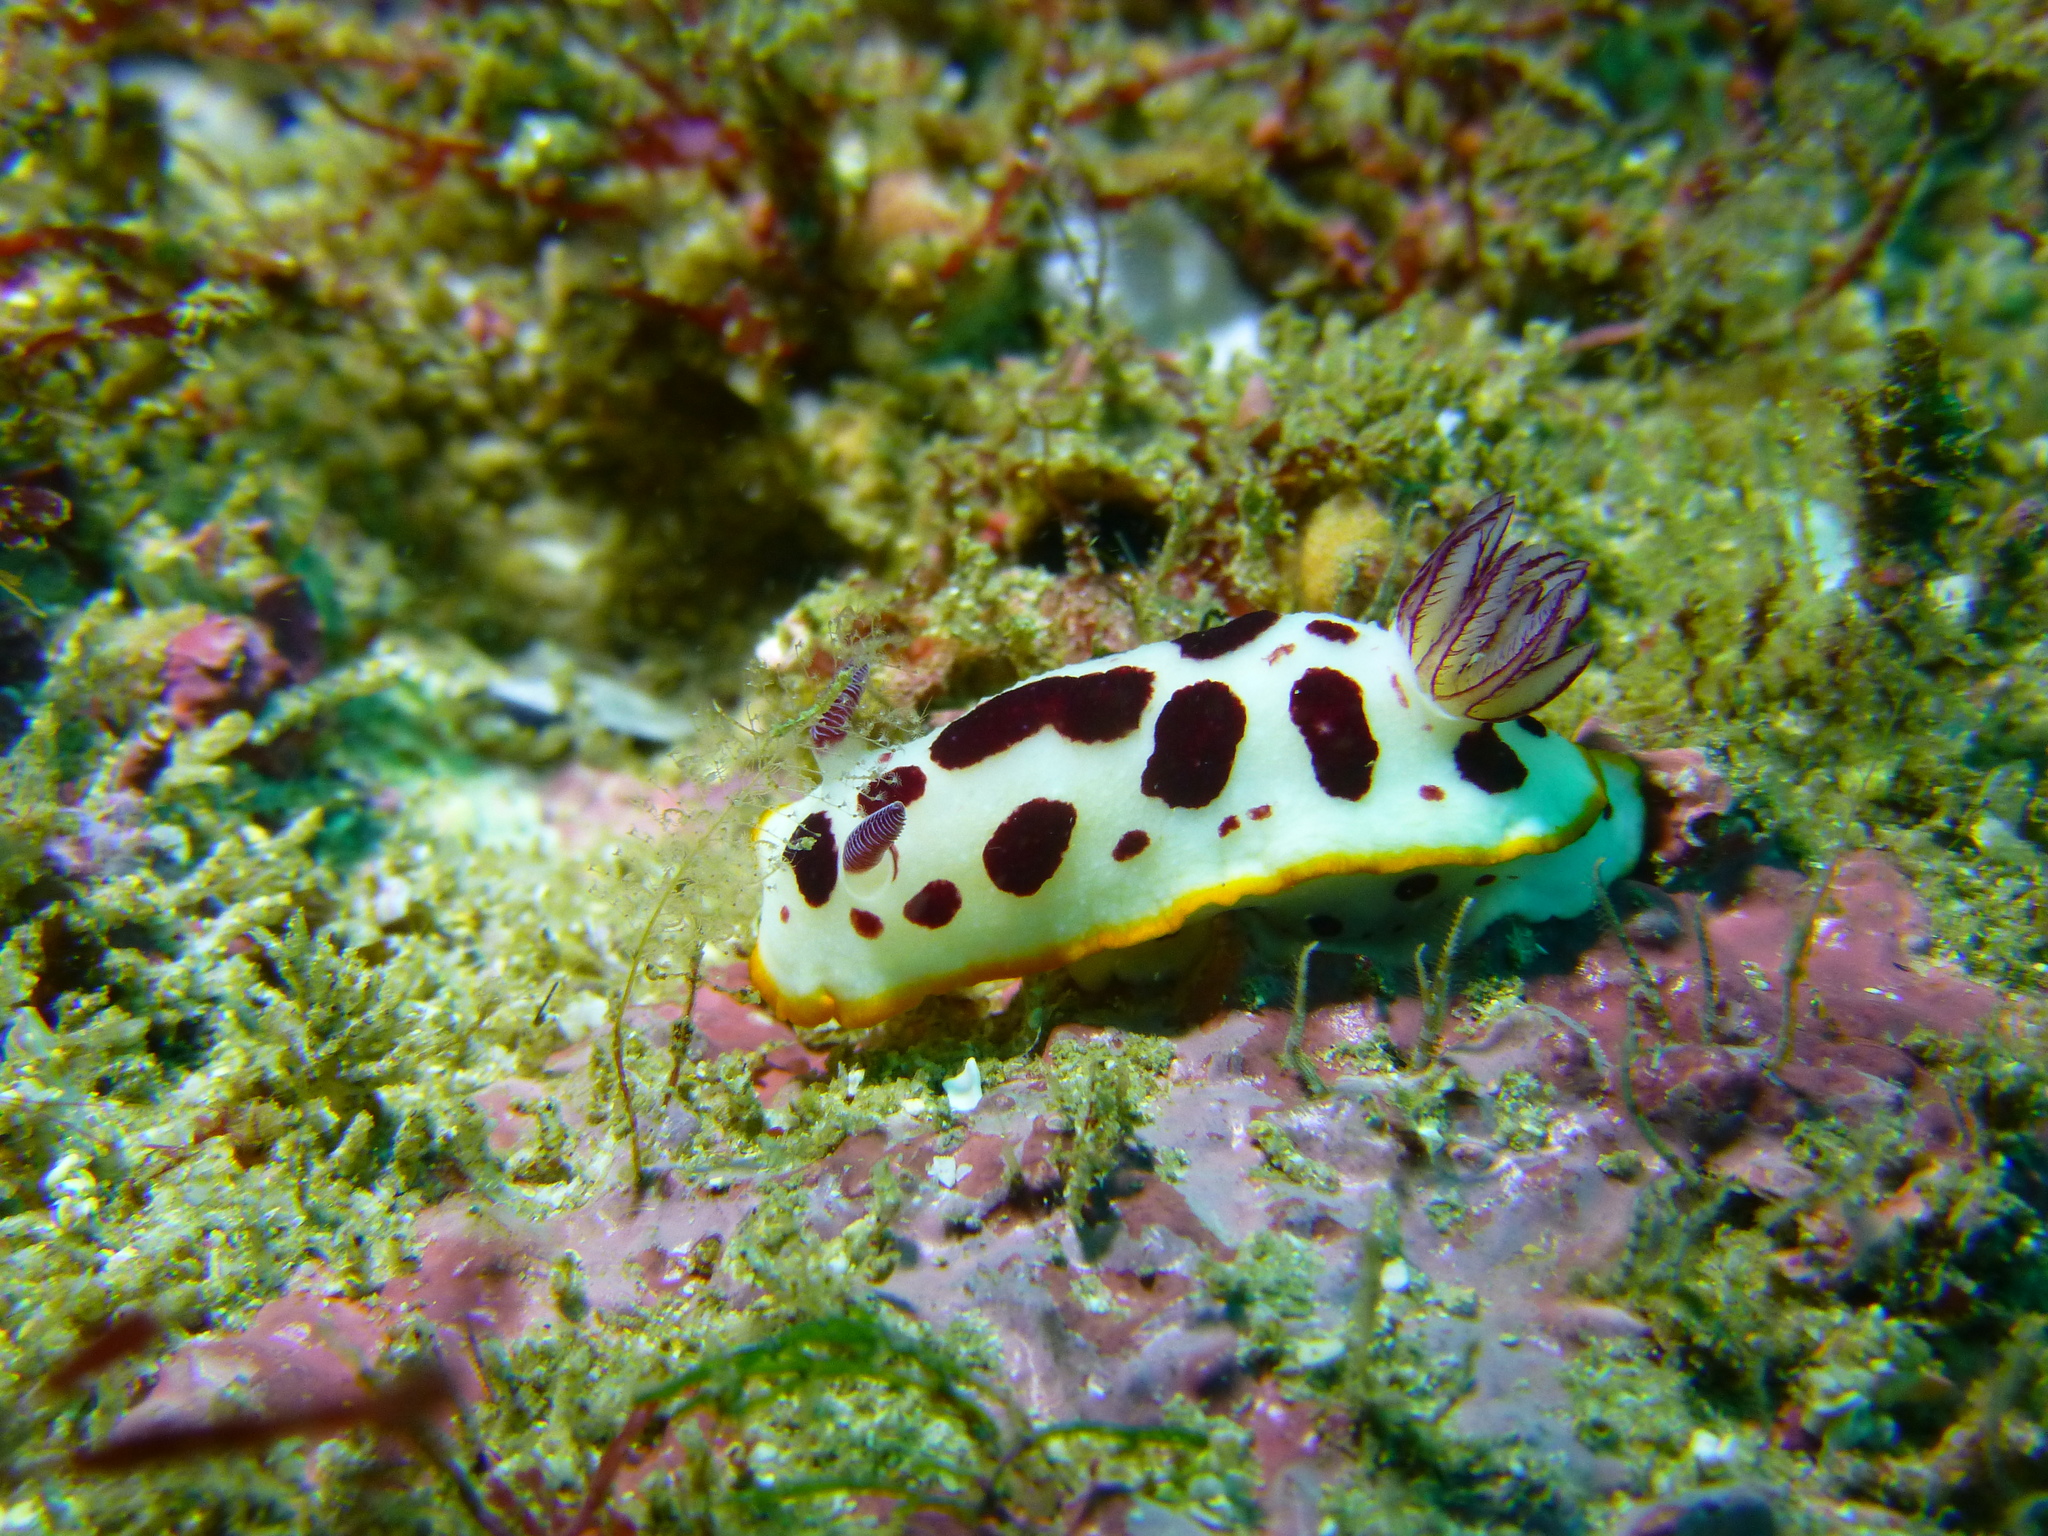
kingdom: Animalia
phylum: Mollusca
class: Gastropoda
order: Nudibranchia
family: Chromodorididae
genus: Goniobranchus
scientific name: Goniobranchus splendidus
